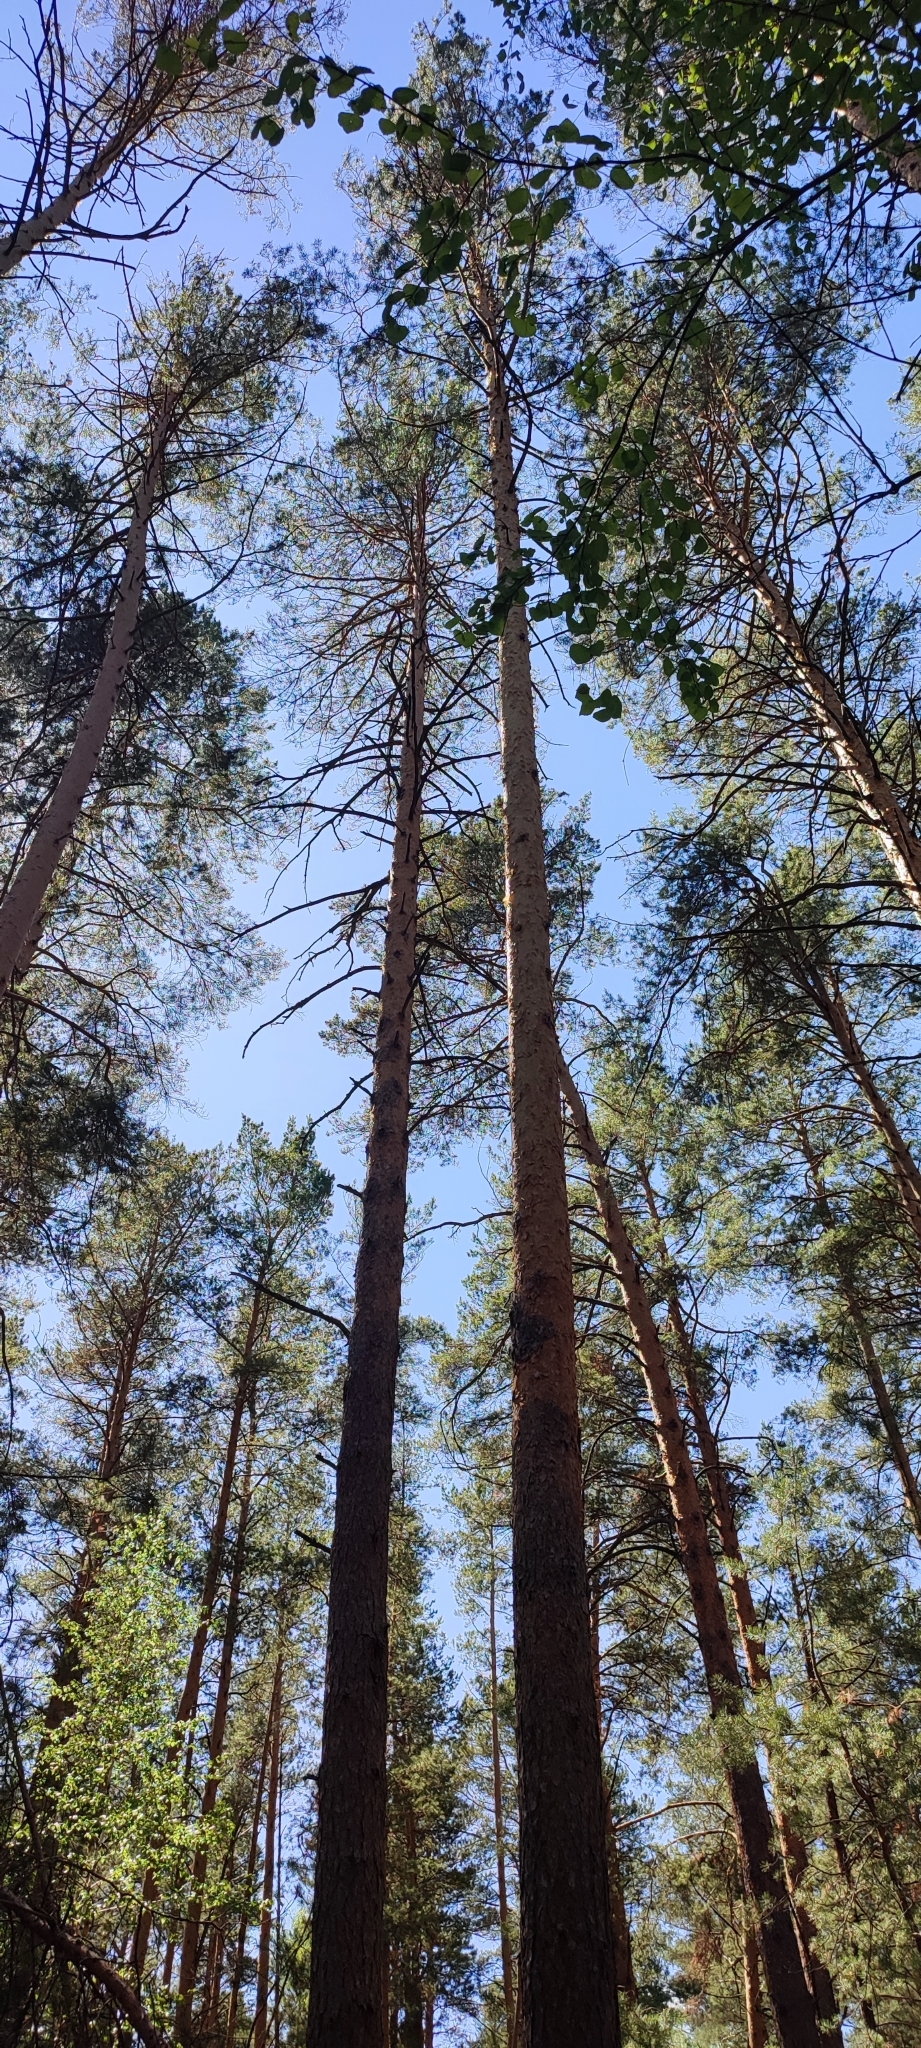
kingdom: Plantae
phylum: Tracheophyta
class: Pinopsida
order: Pinales
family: Pinaceae
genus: Pinus
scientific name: Pinus sylvestris
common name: Scots pine
